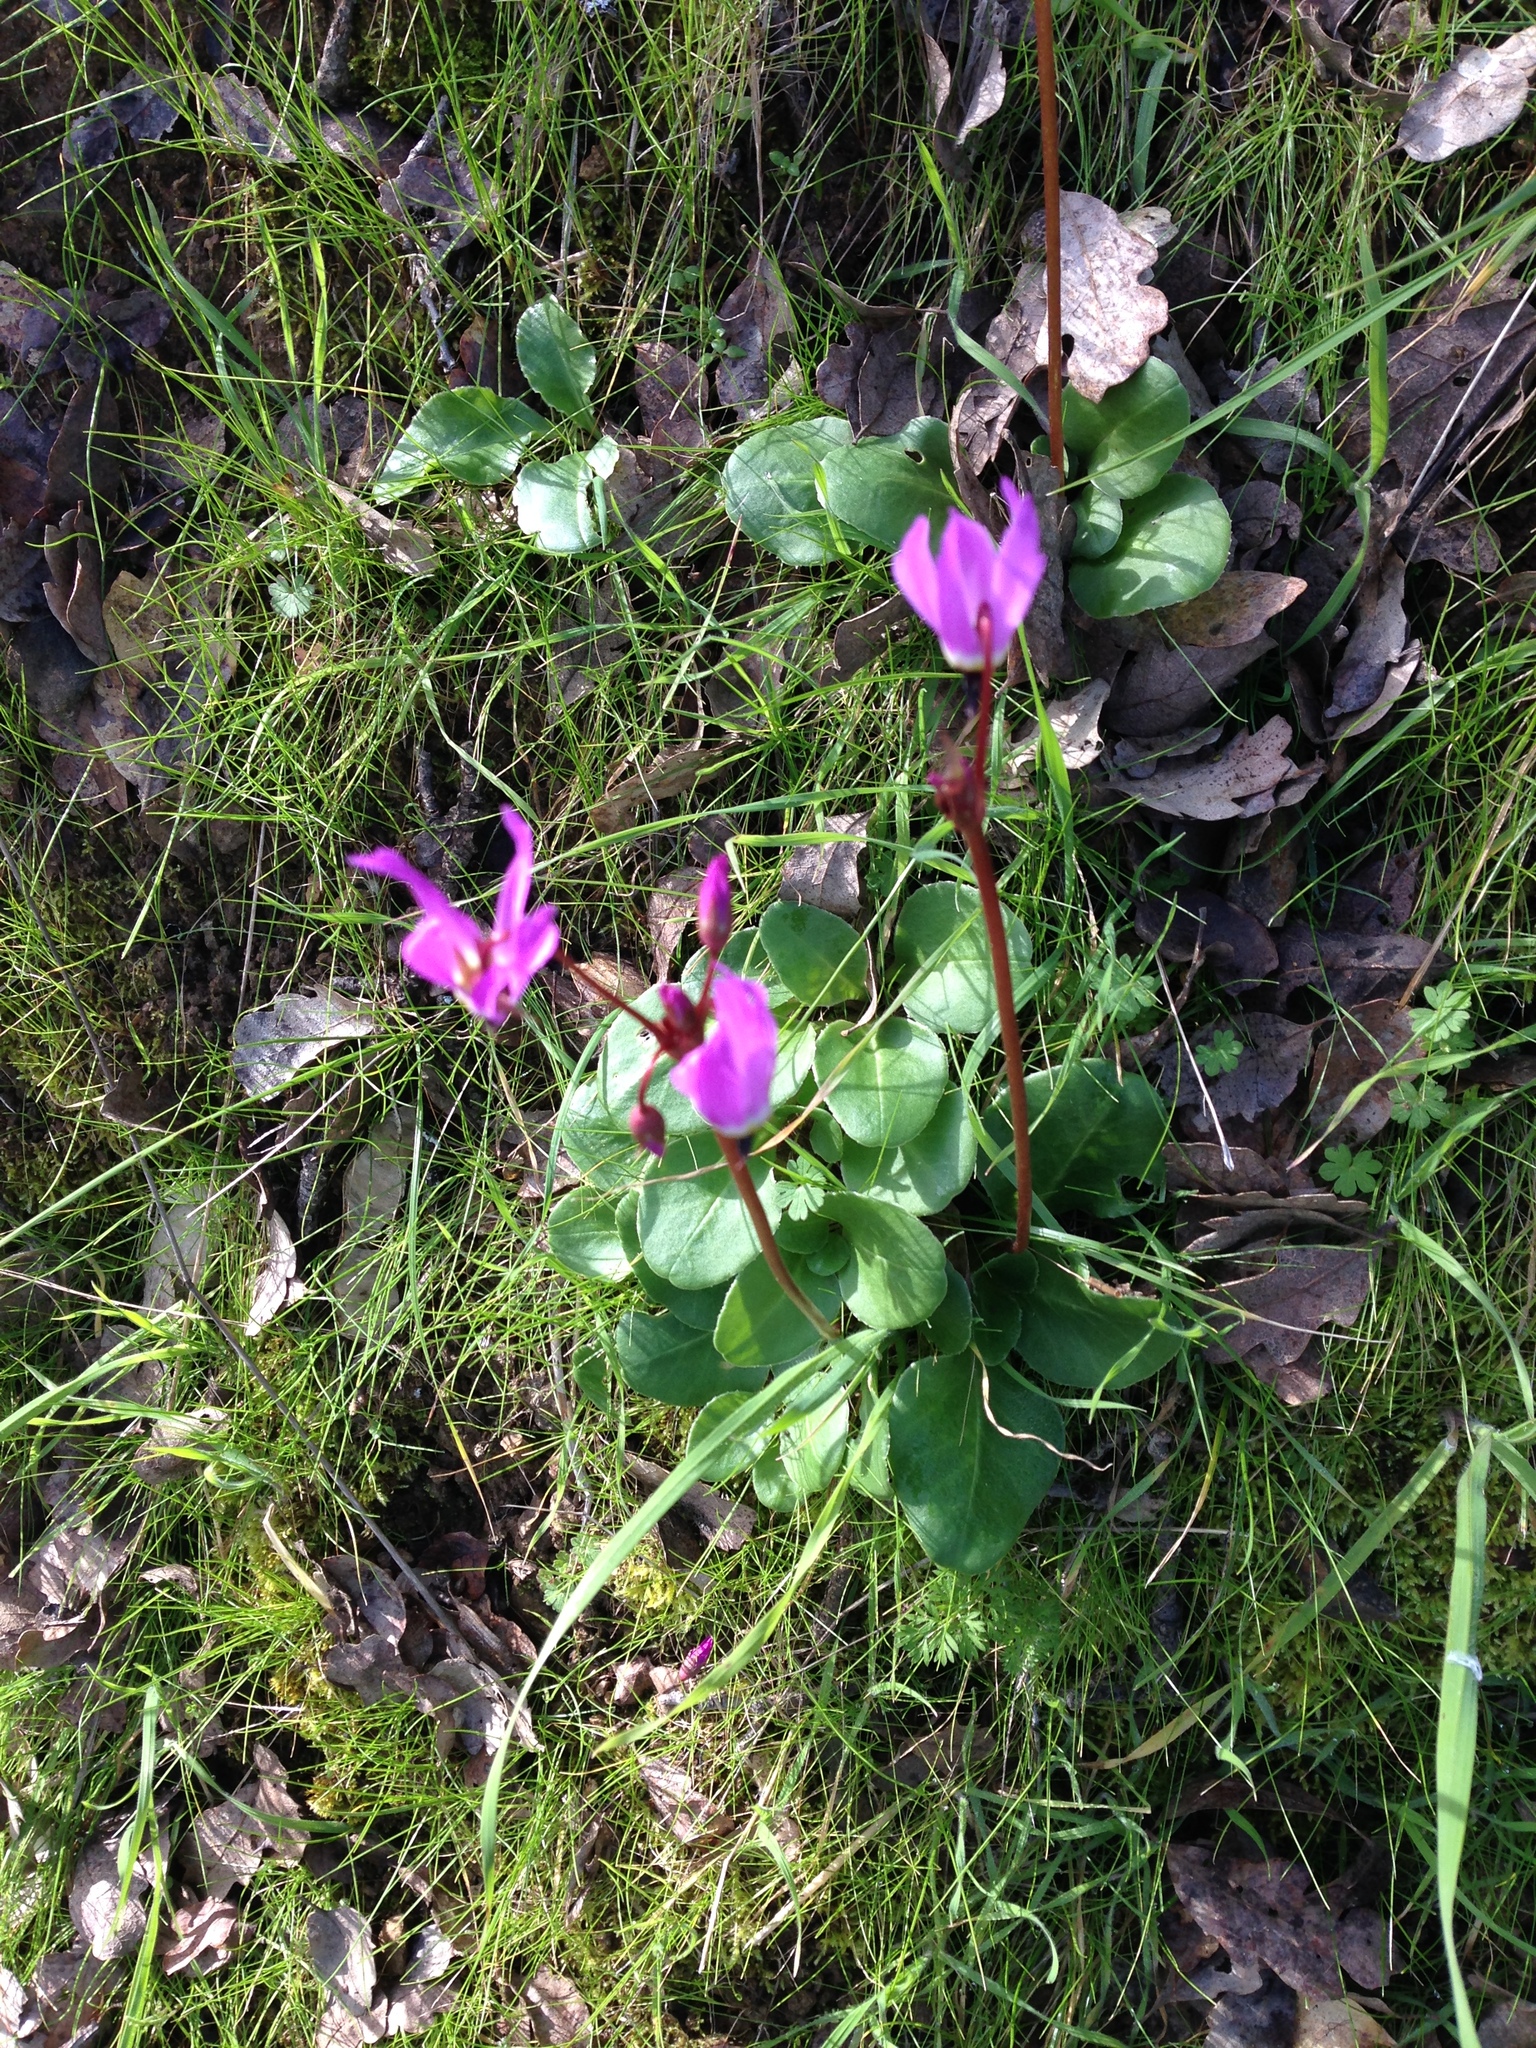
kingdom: Plantae
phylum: Tracheophyta
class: Magnoliopsida
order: Ericales
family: Primulaceae
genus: Dodecatheon
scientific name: Dodecatheon hendersonii
